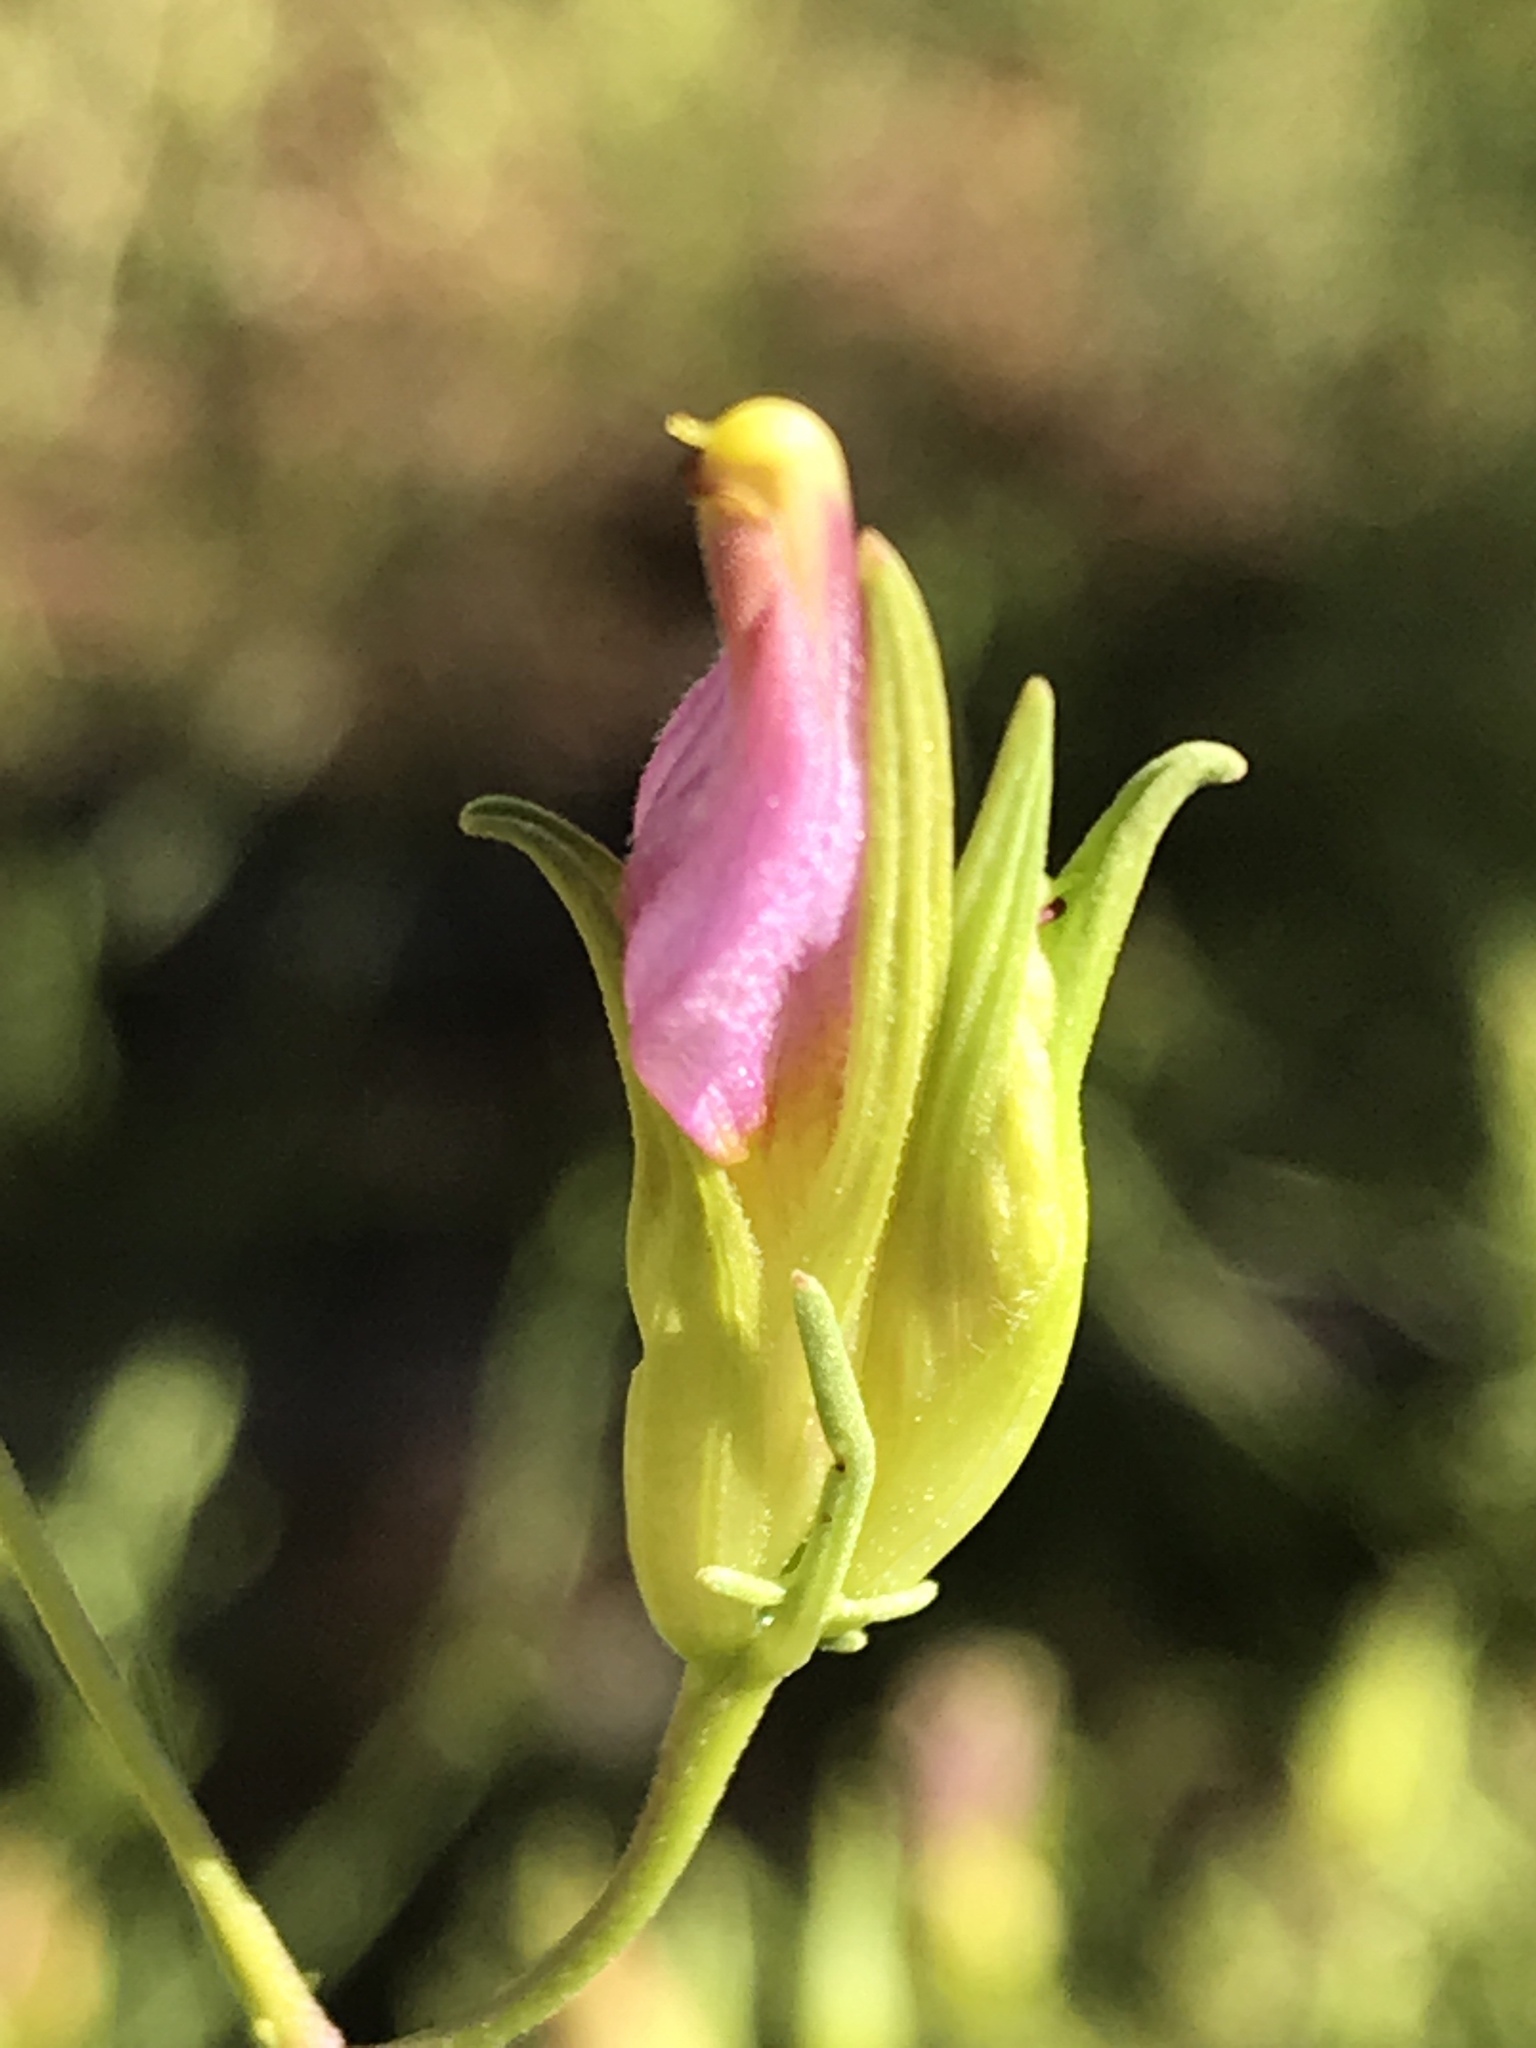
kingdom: Plantae
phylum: Tracheophyta
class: Magnoliopsida
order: Lamiales
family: Orobanchaceae
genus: Cordylanthus
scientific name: Cordylanthus wrightii
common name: Wright's birdsbeak
